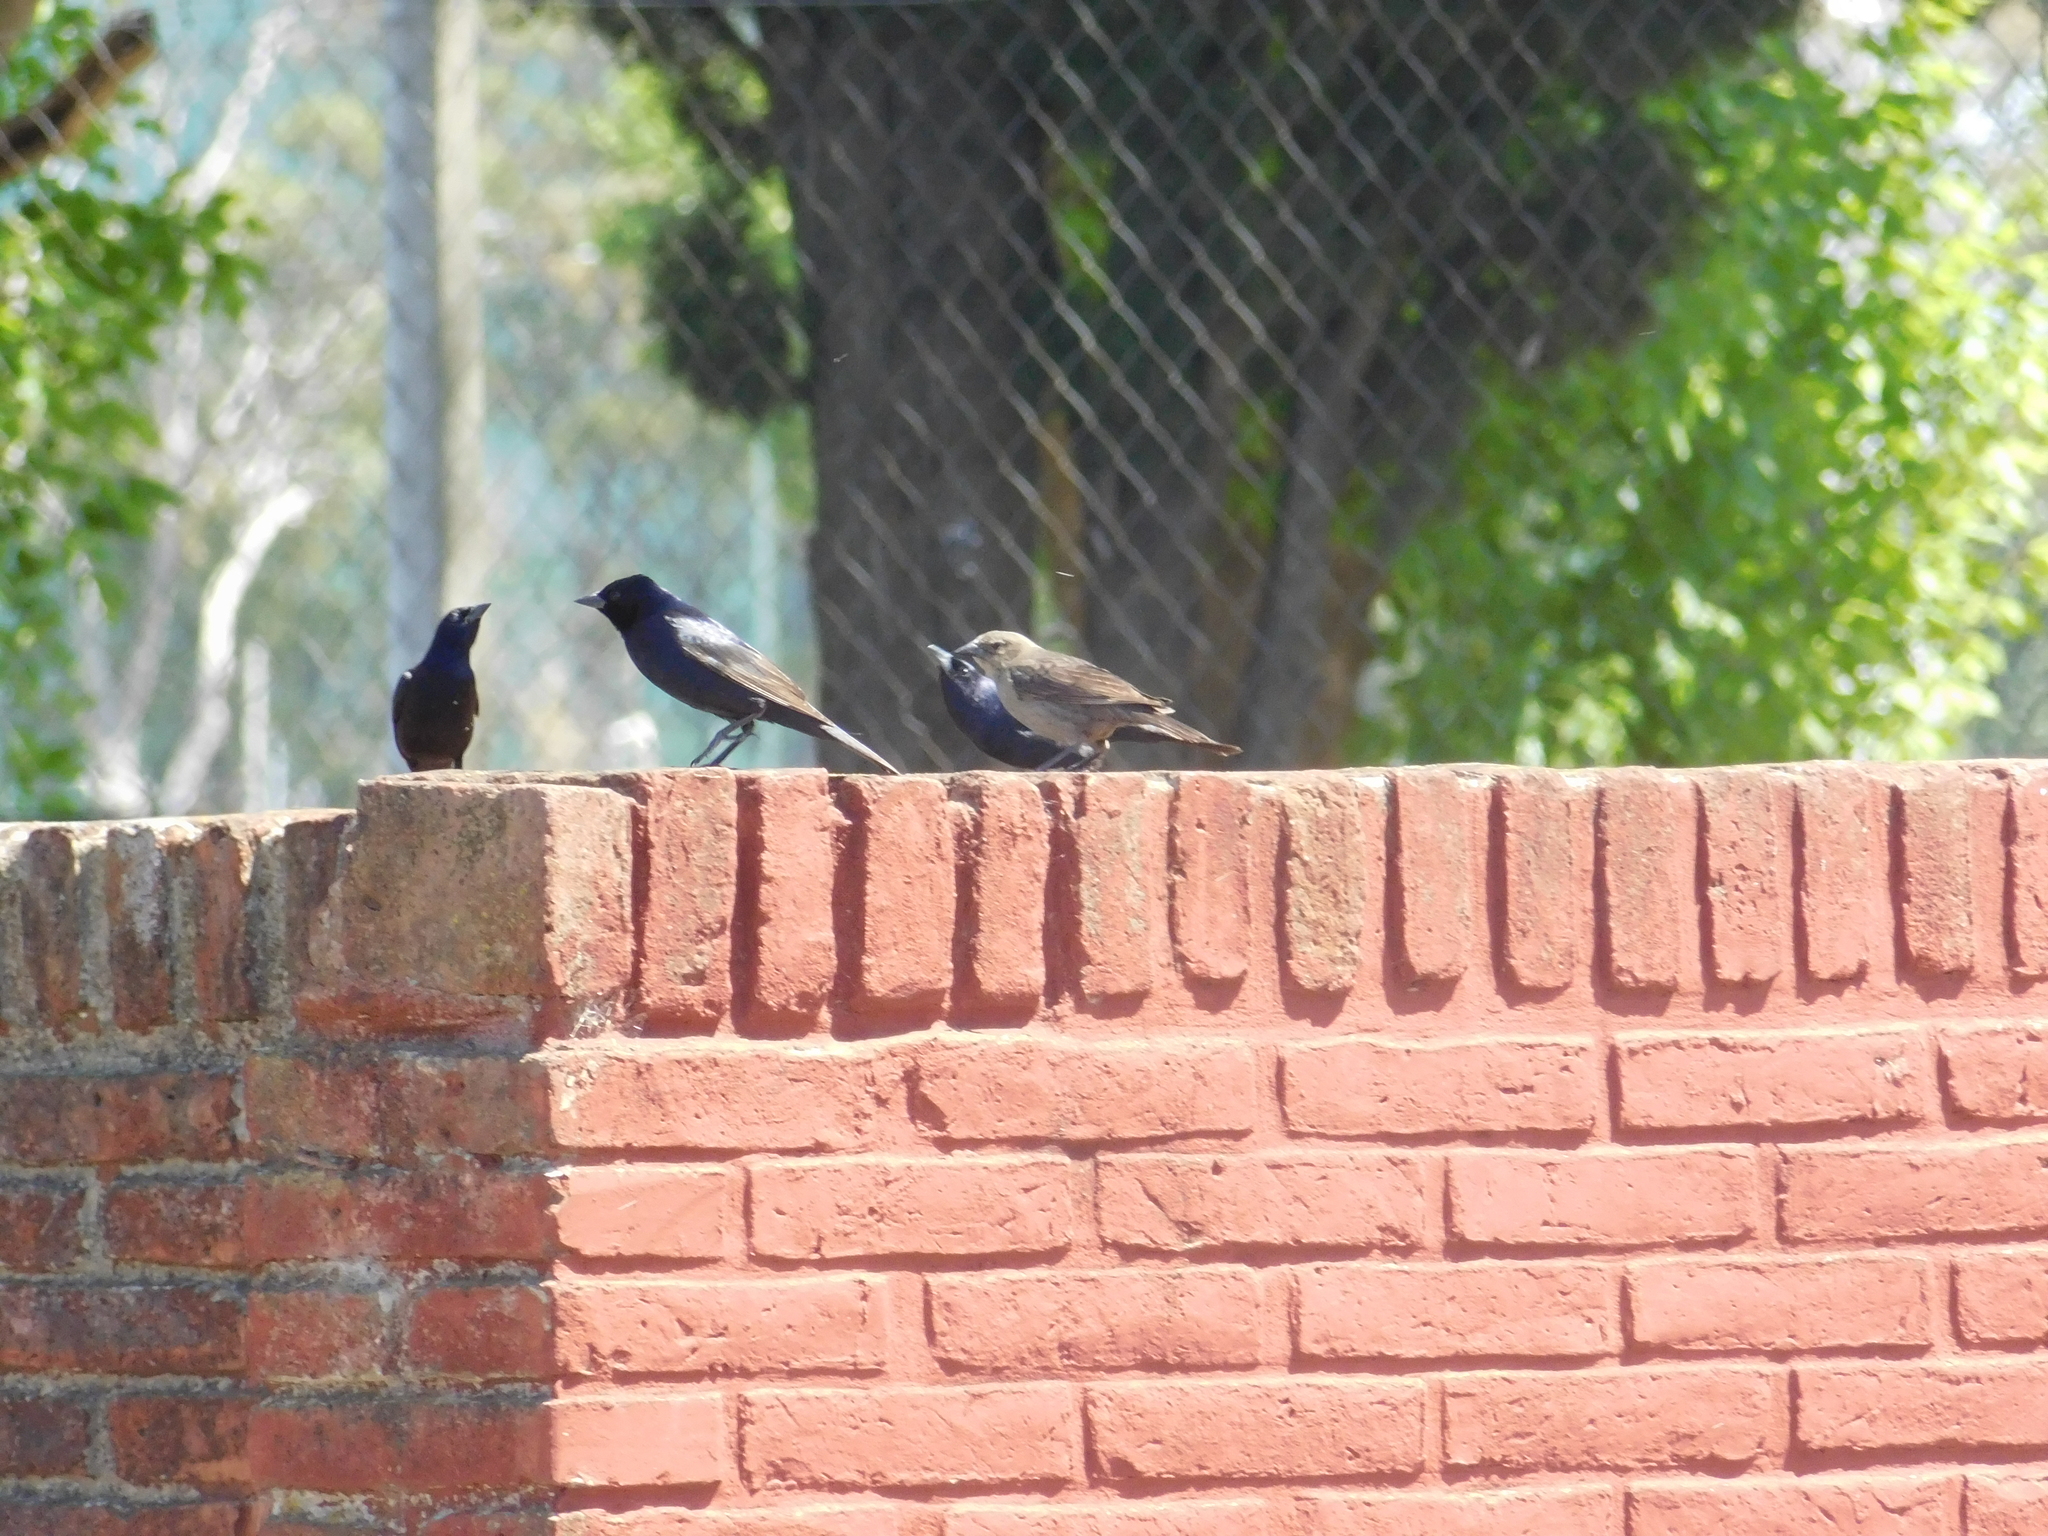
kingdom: Animalia
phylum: Chordata
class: Aves
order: Passeriformes
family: Icteridae
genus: Molothrus
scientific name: Molothrus bonariensis
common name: Shiny cowbird
